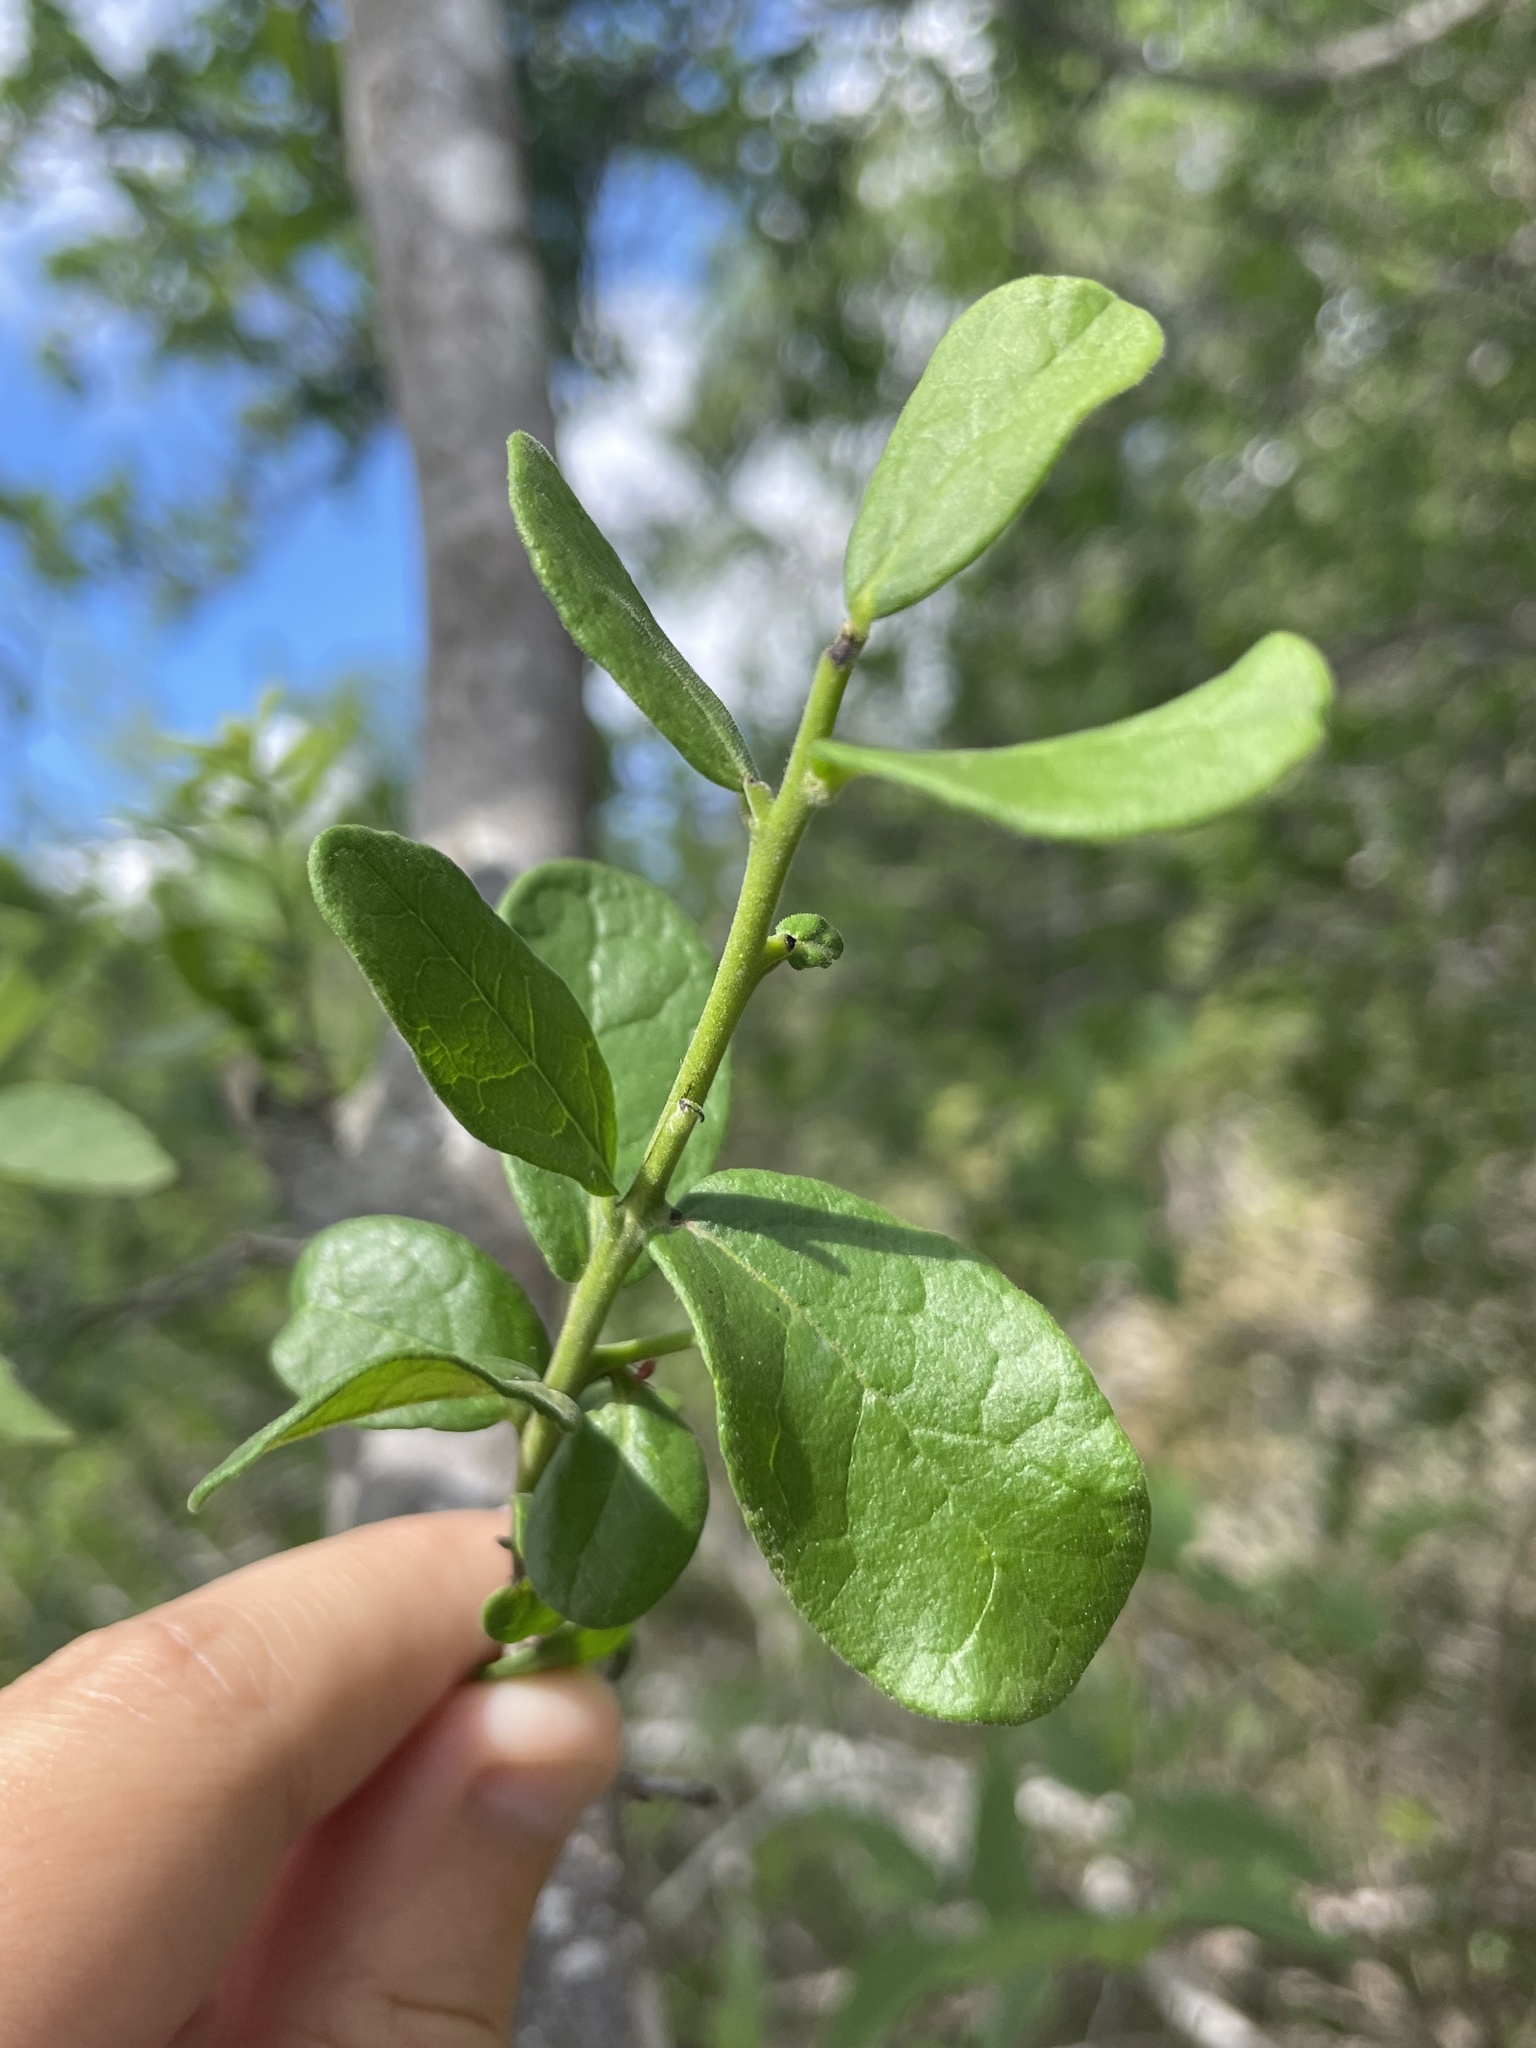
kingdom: Plantae
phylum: Tracheophyta
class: Magnoliopsida
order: Ericales
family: Ebenaceae
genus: Diospyros
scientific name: Diospyros texana
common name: Texas persimmon
